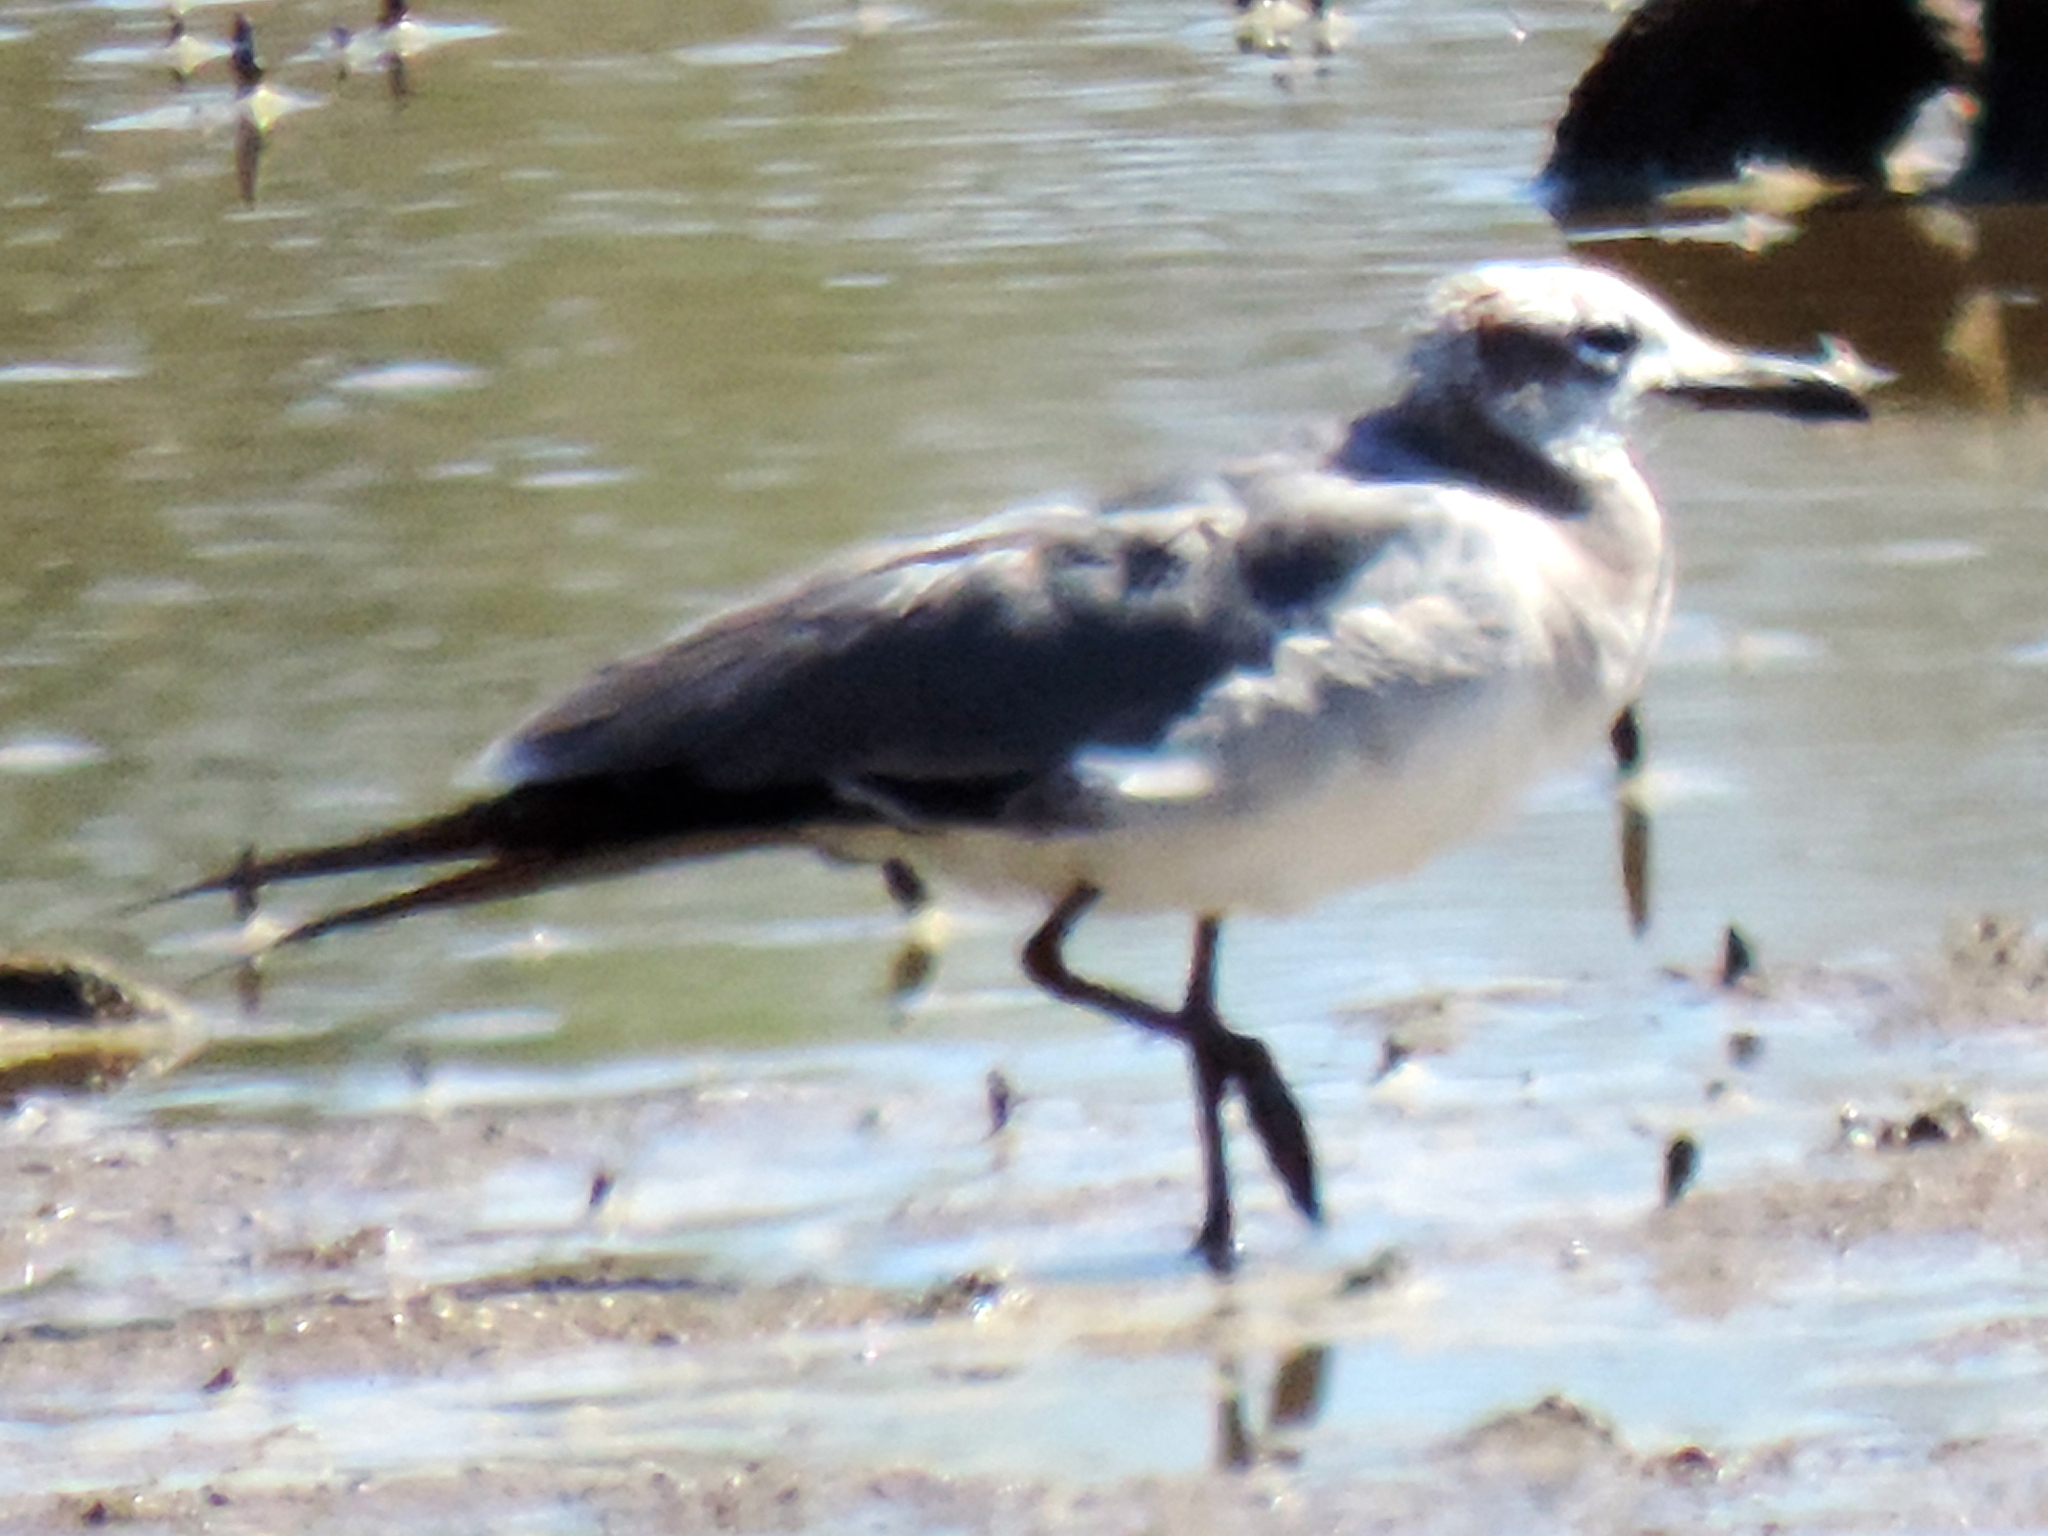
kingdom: Animalia
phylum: Chordata
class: Aves
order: Charadriiformes
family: Laridae
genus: Leucophaeus
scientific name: Leucophaeus atricilla
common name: Laughing gull
